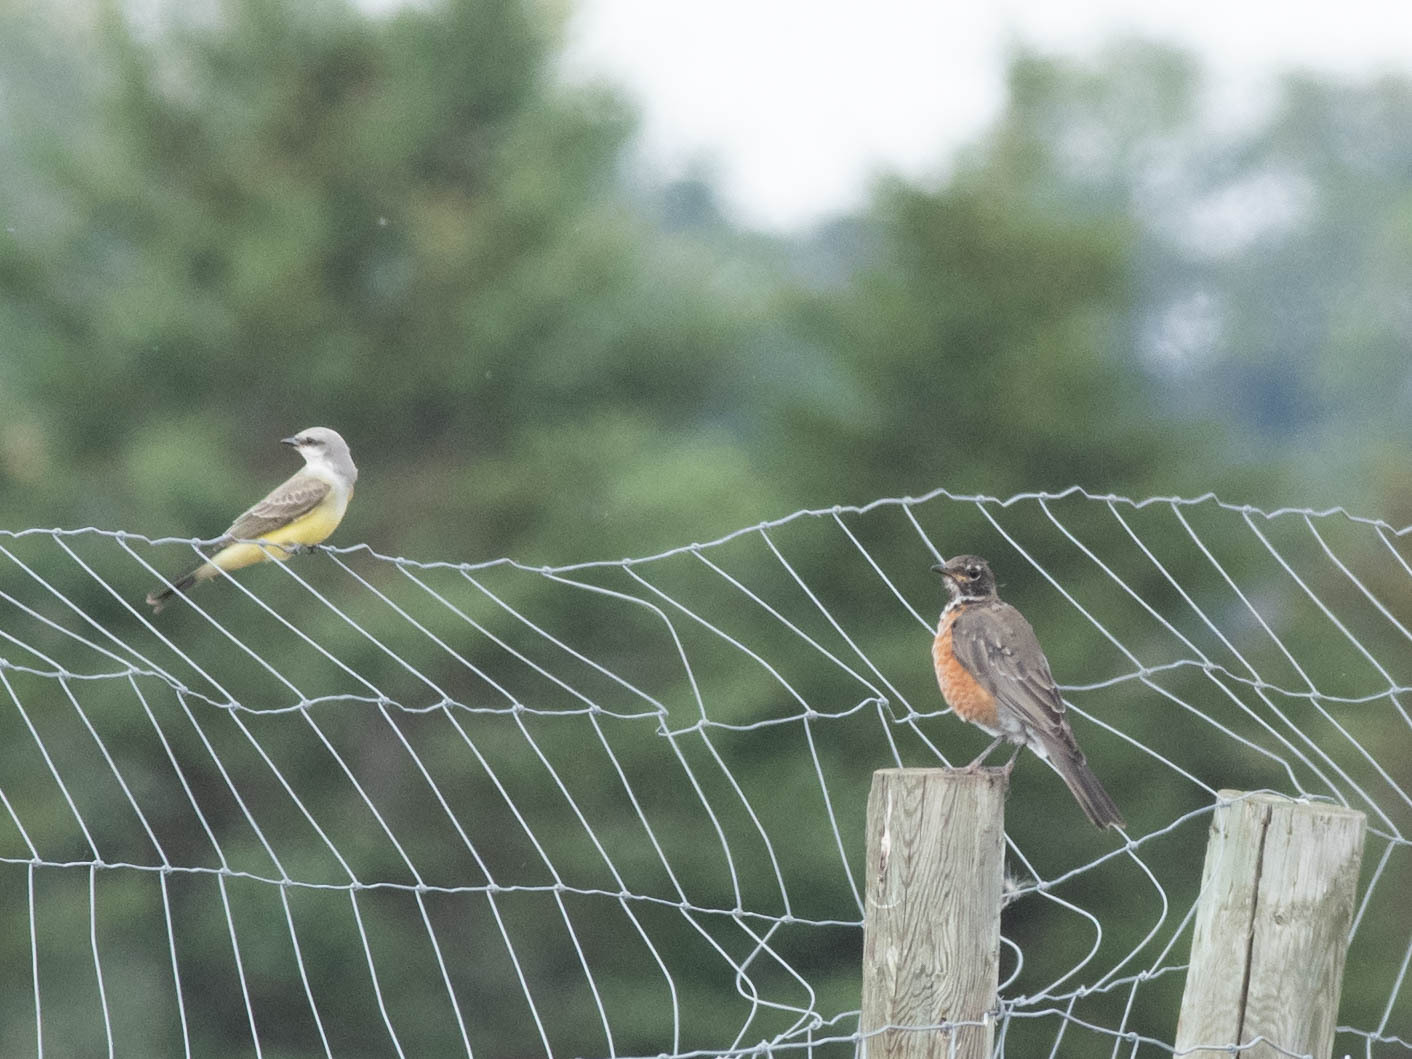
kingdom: Animalia
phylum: Chordata
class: Aves
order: Passeriformes
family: Turdidae
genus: Turdus
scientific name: Turdus migratorius
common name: American robin
